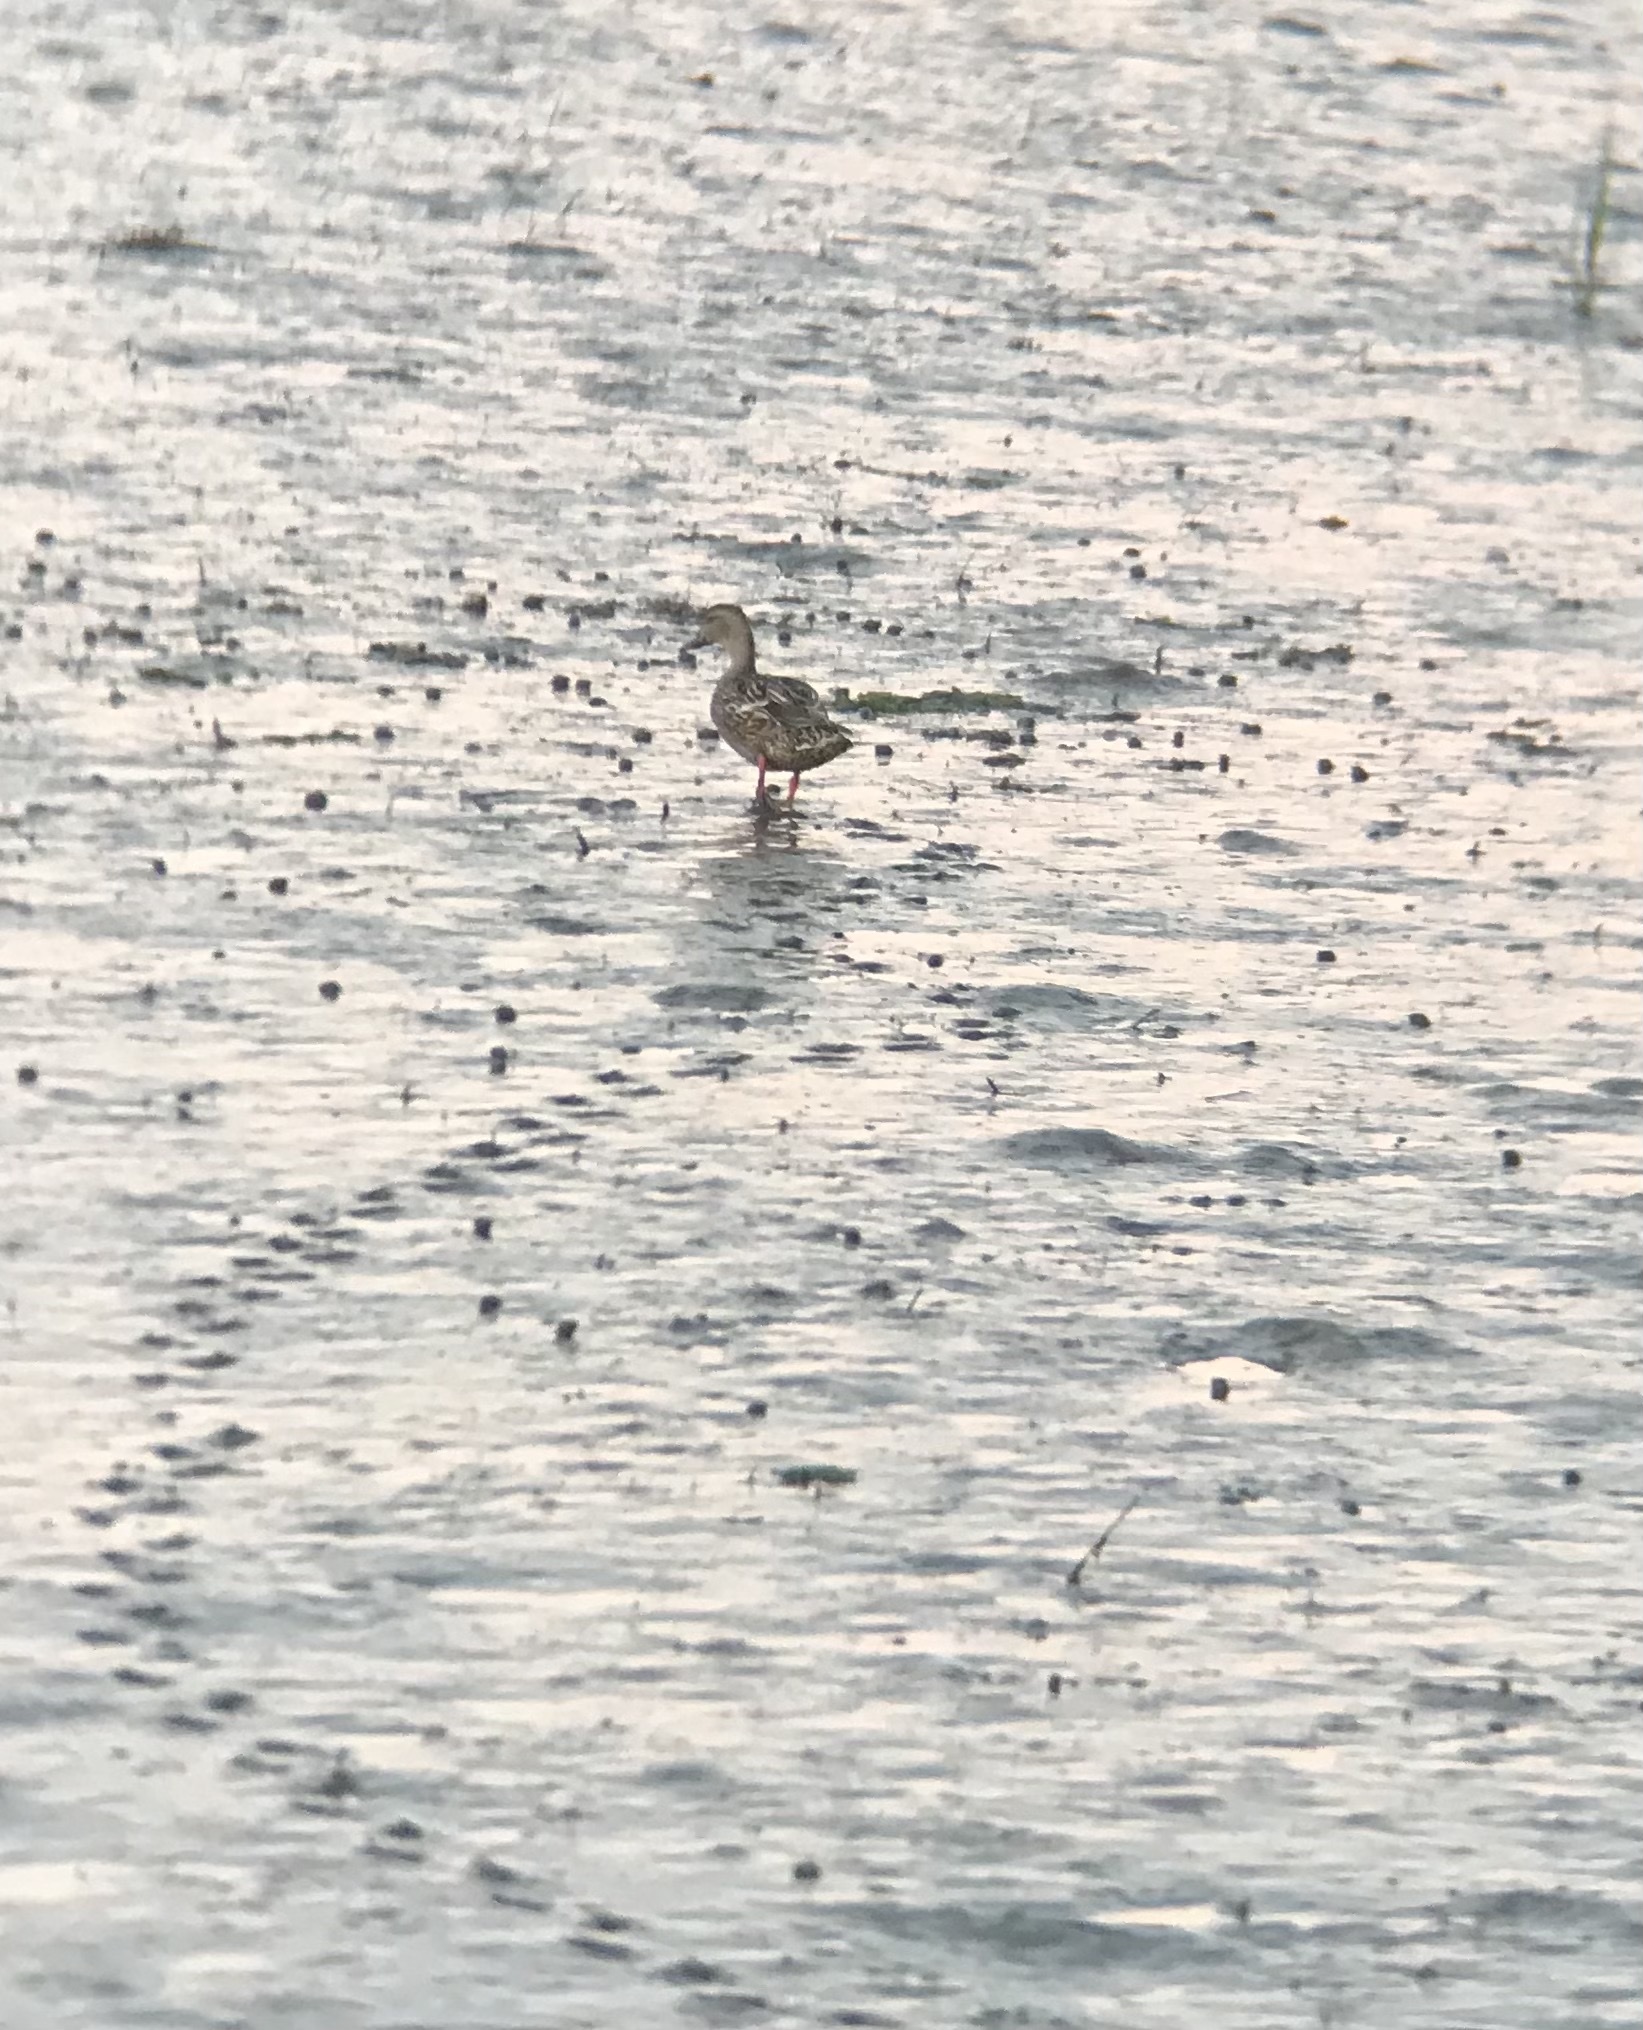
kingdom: Animalia
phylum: Chordata
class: Aves
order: Anseriformes
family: Anatidae
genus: Anas
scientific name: Anas platyrhynchos
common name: Mallard
